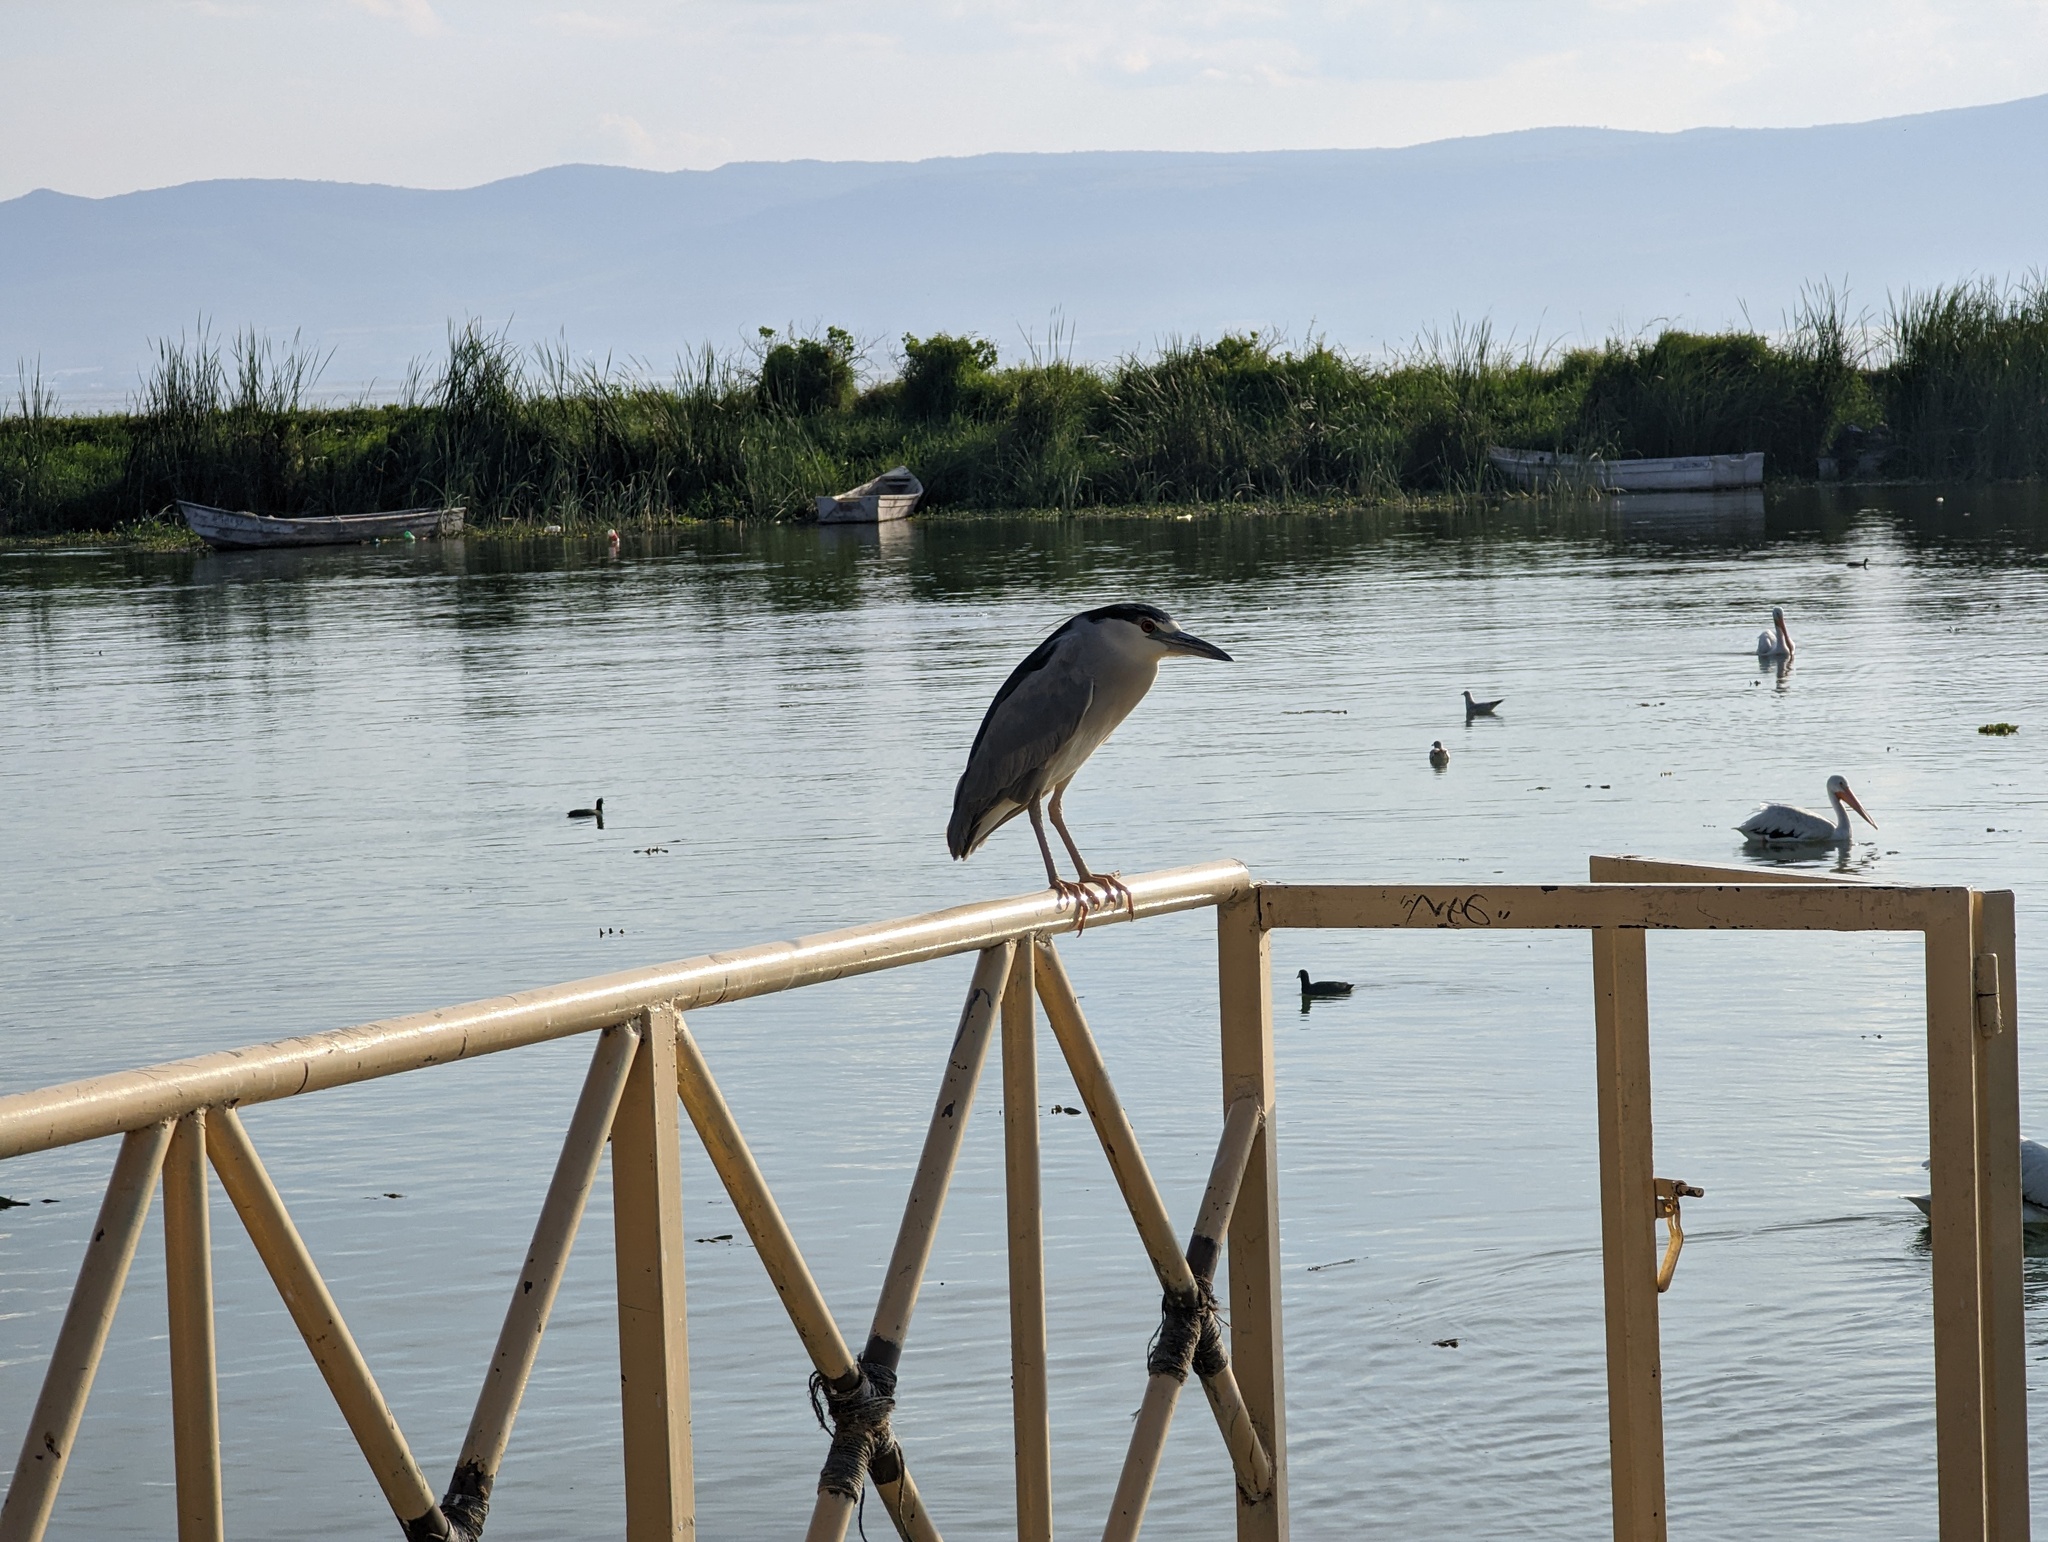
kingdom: Animalia
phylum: Chordata
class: Aves
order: Pelecaniformes
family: Ardeidae
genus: Nycticorax
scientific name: Nycticorax nycticorax
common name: Black-crowned night heron
